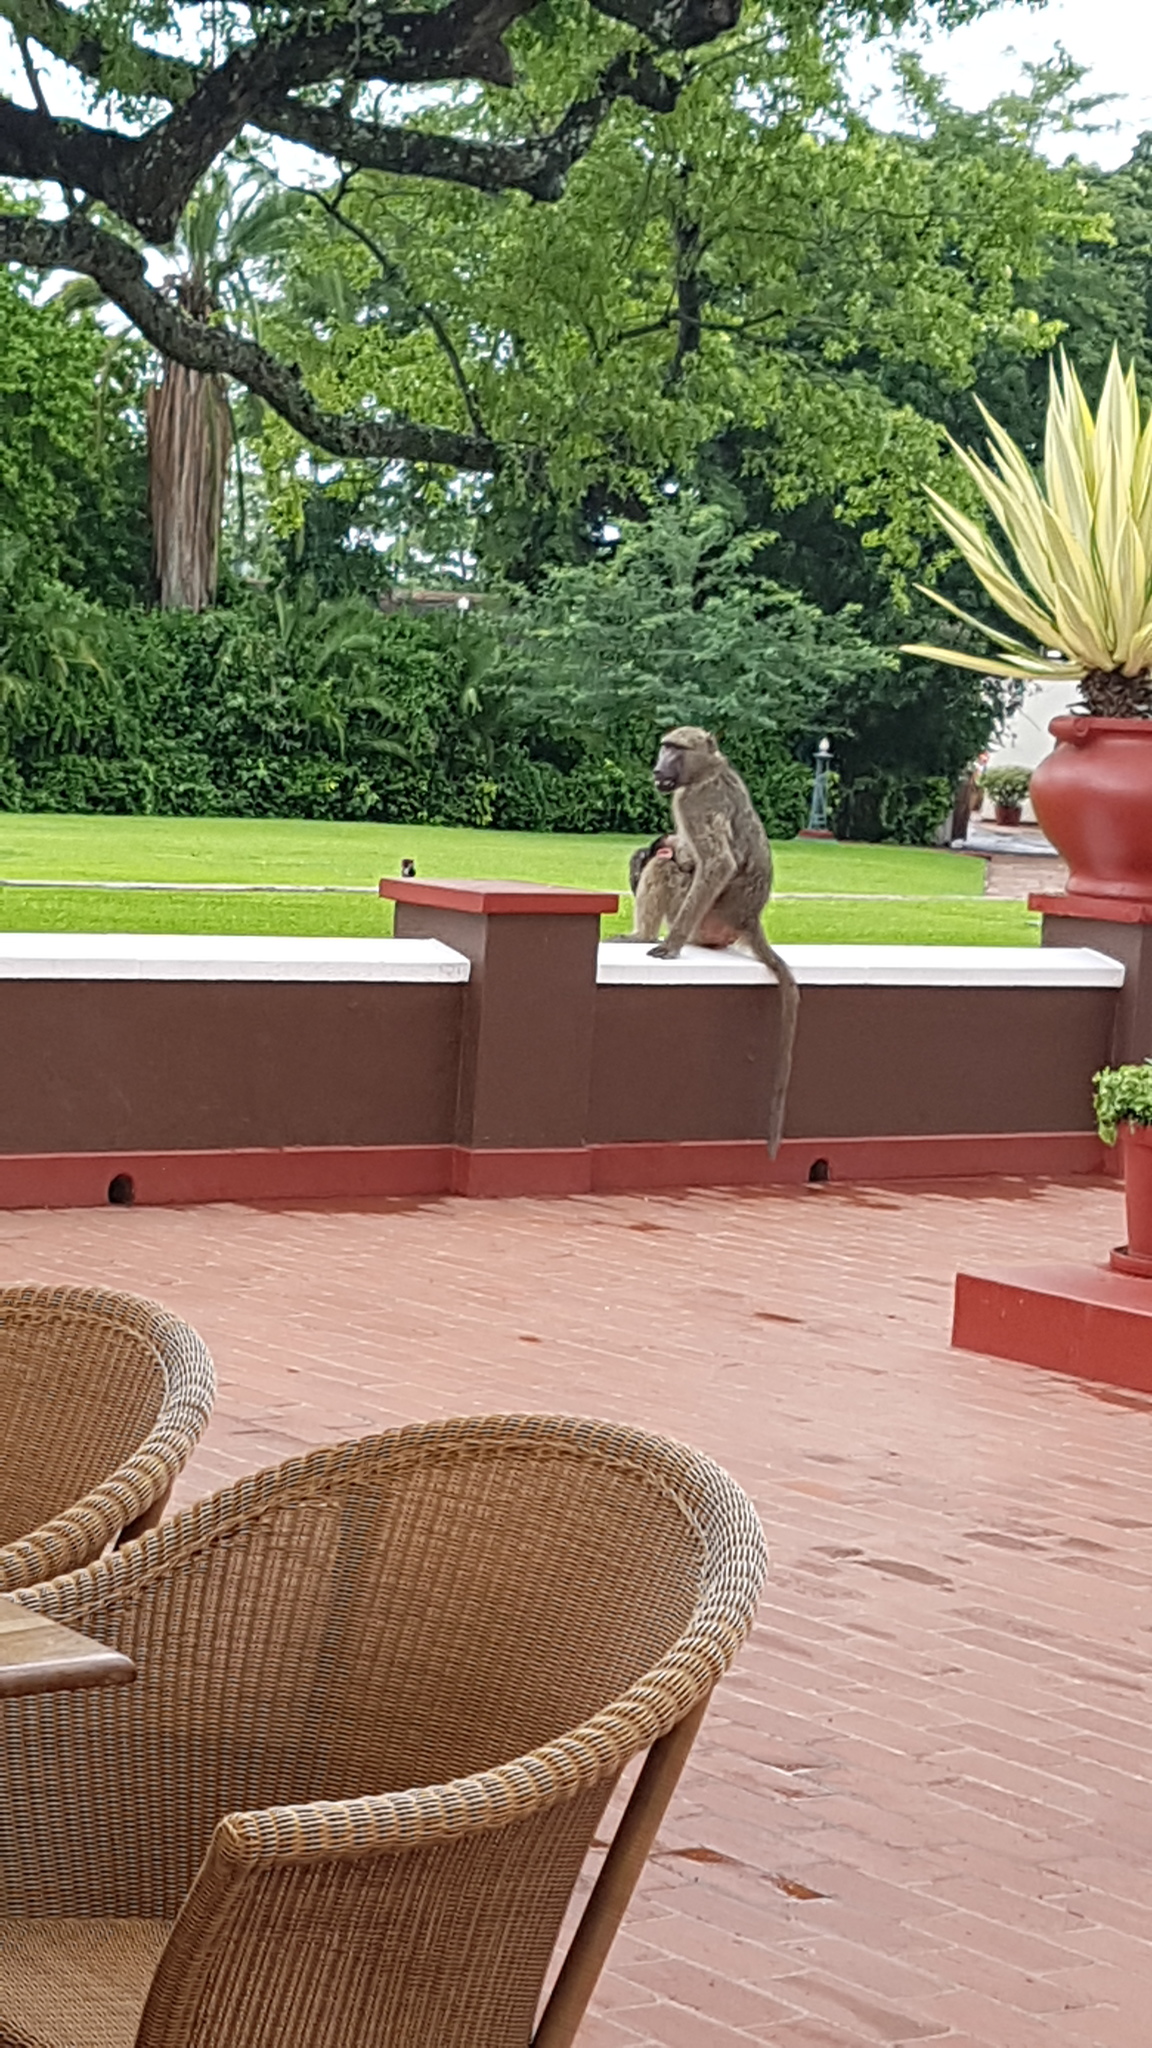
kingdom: Animalia
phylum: Chordata
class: Mammalia
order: Primates
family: Cercopithecidae
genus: Papio
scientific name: Papio ursinus
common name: Chacma baboon
